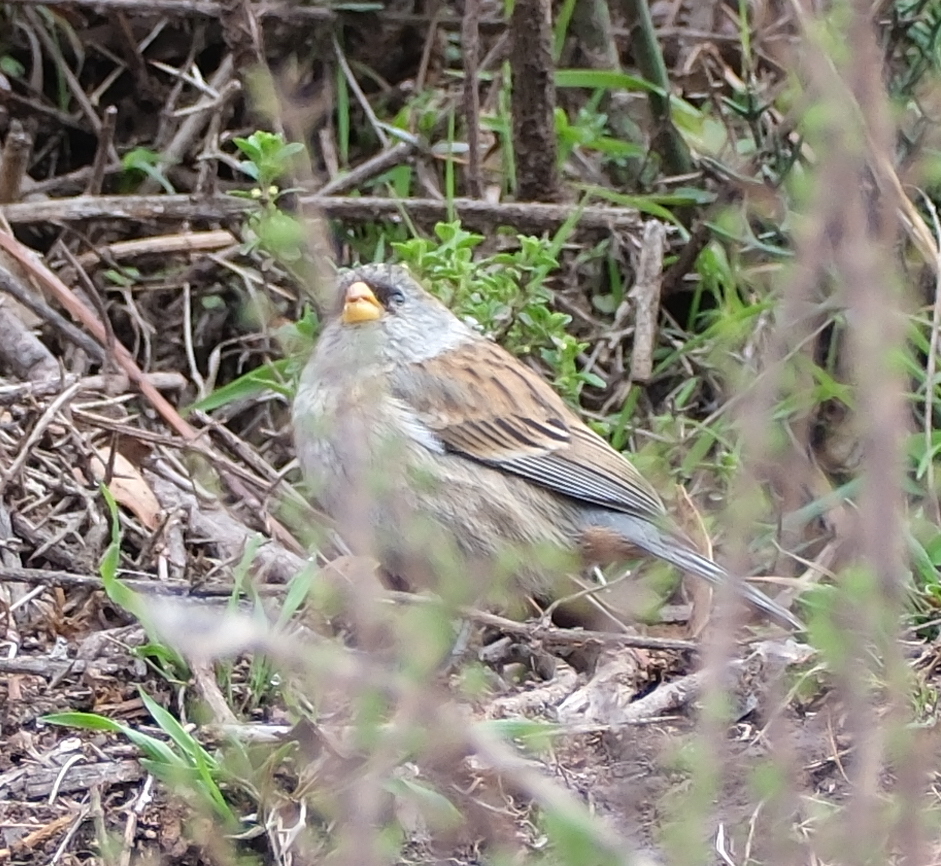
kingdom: Animalia
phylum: Chordata
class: Aves
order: Passeriformes
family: Thraupidae
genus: Catamenia
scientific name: Catamenia analis
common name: Band-tailed seedeater
